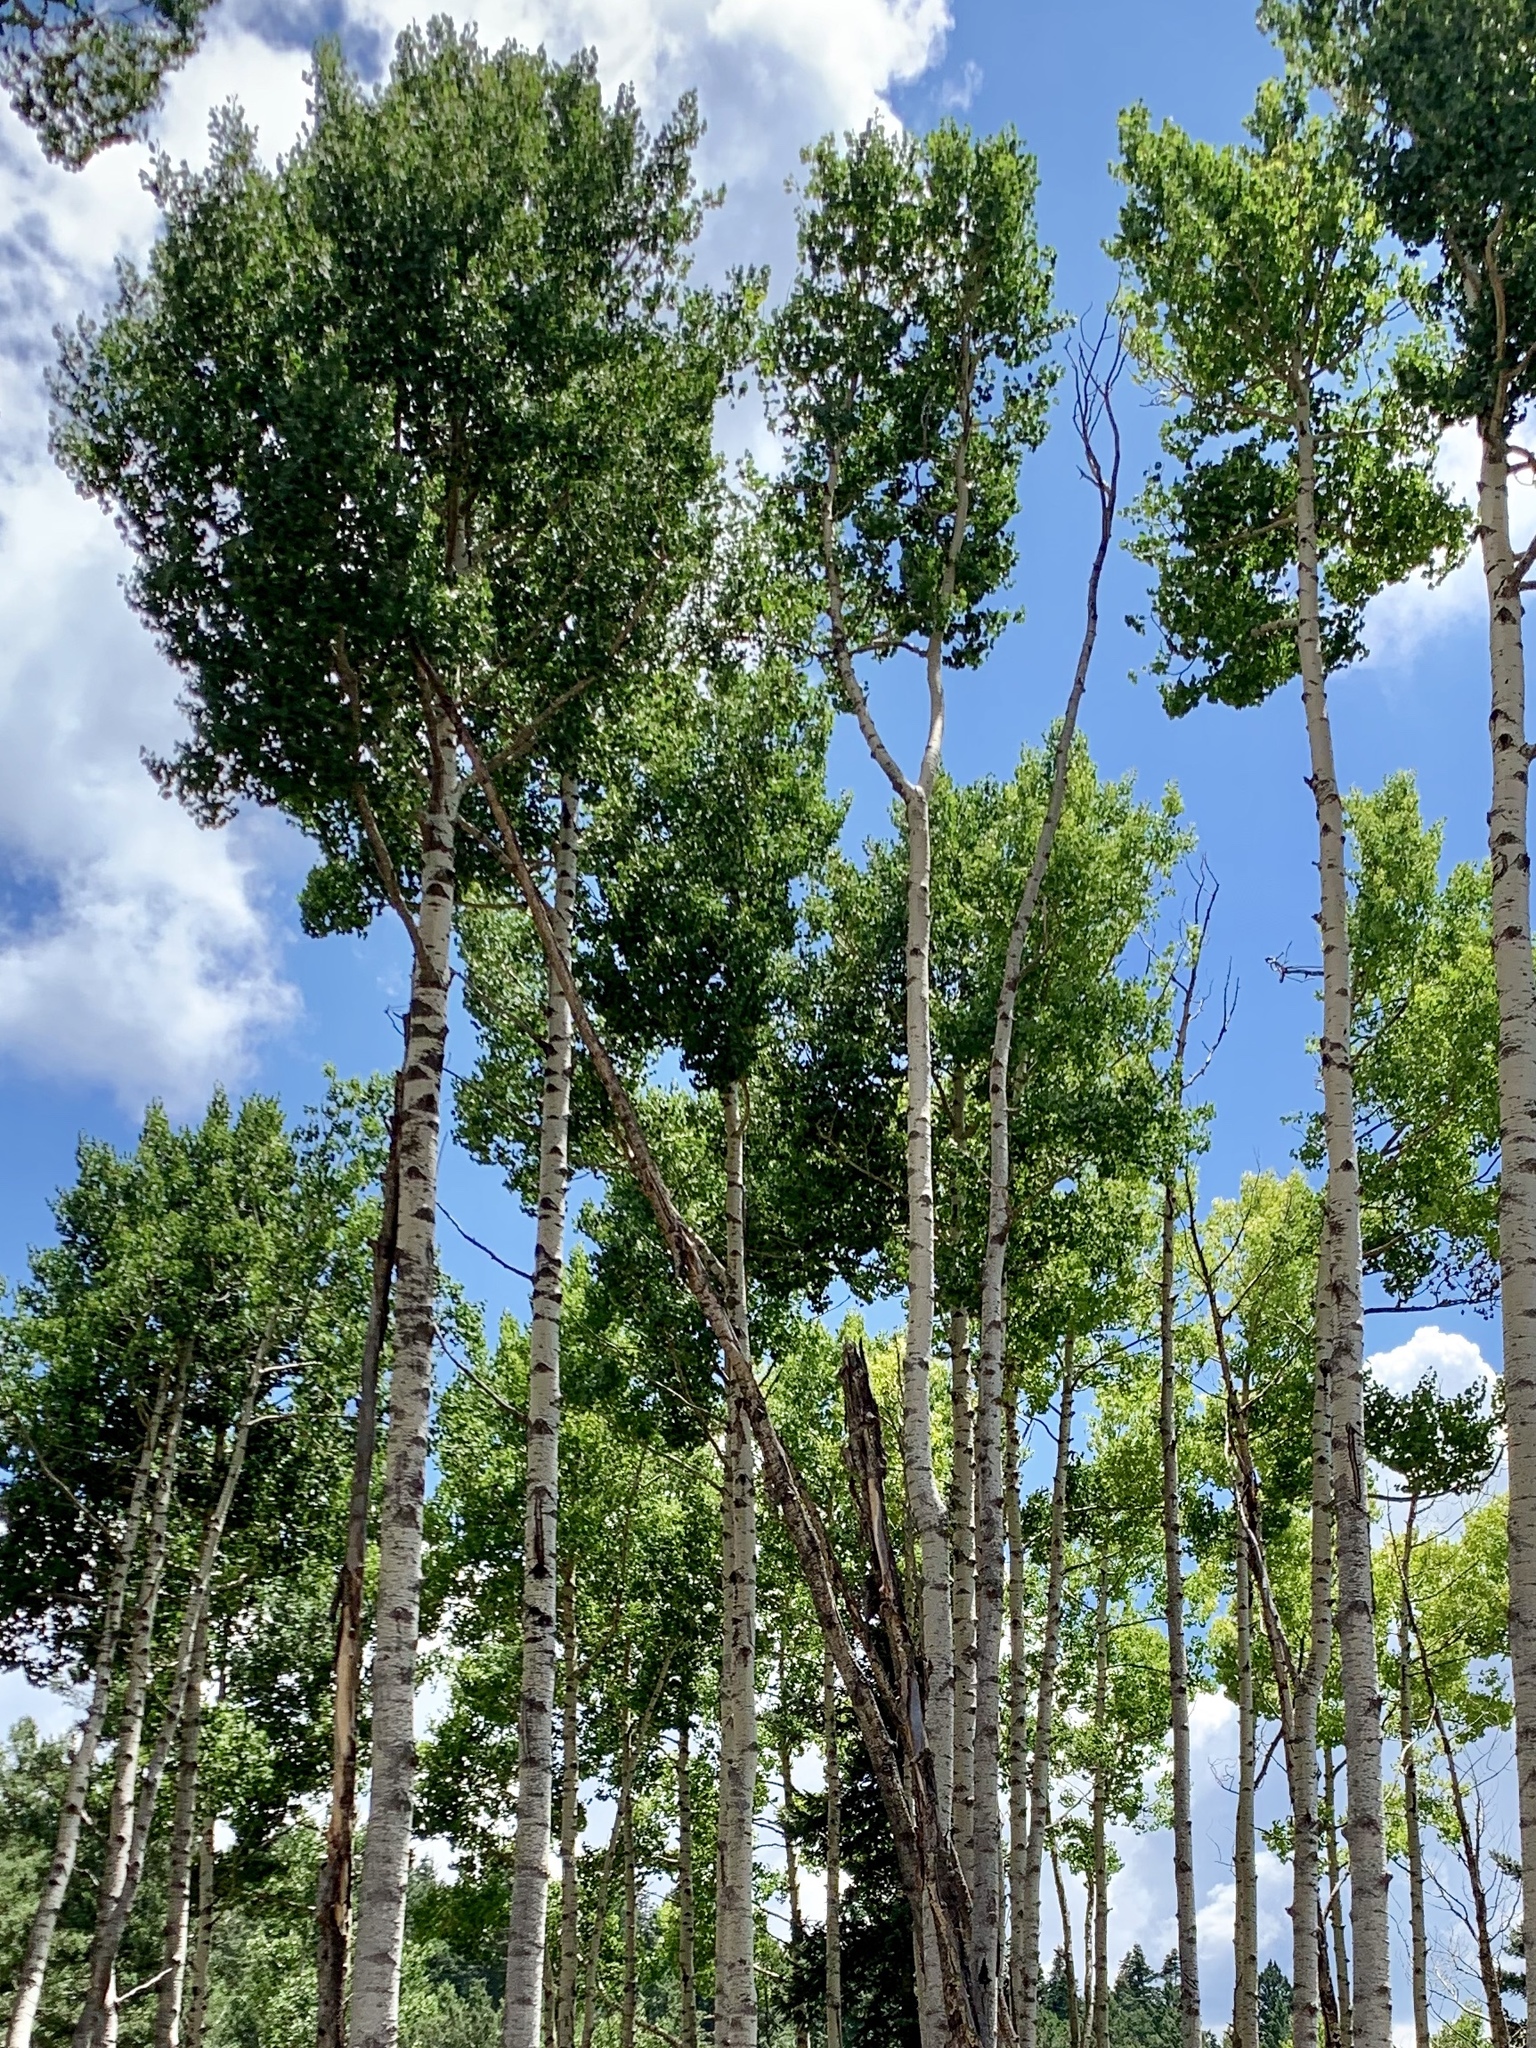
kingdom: Plantae
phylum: Tracheophyta
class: Magnoliopsida
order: Malpighiales
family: Salicaceae
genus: Populus
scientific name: Populus tremuloides
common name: Quaking aspen
